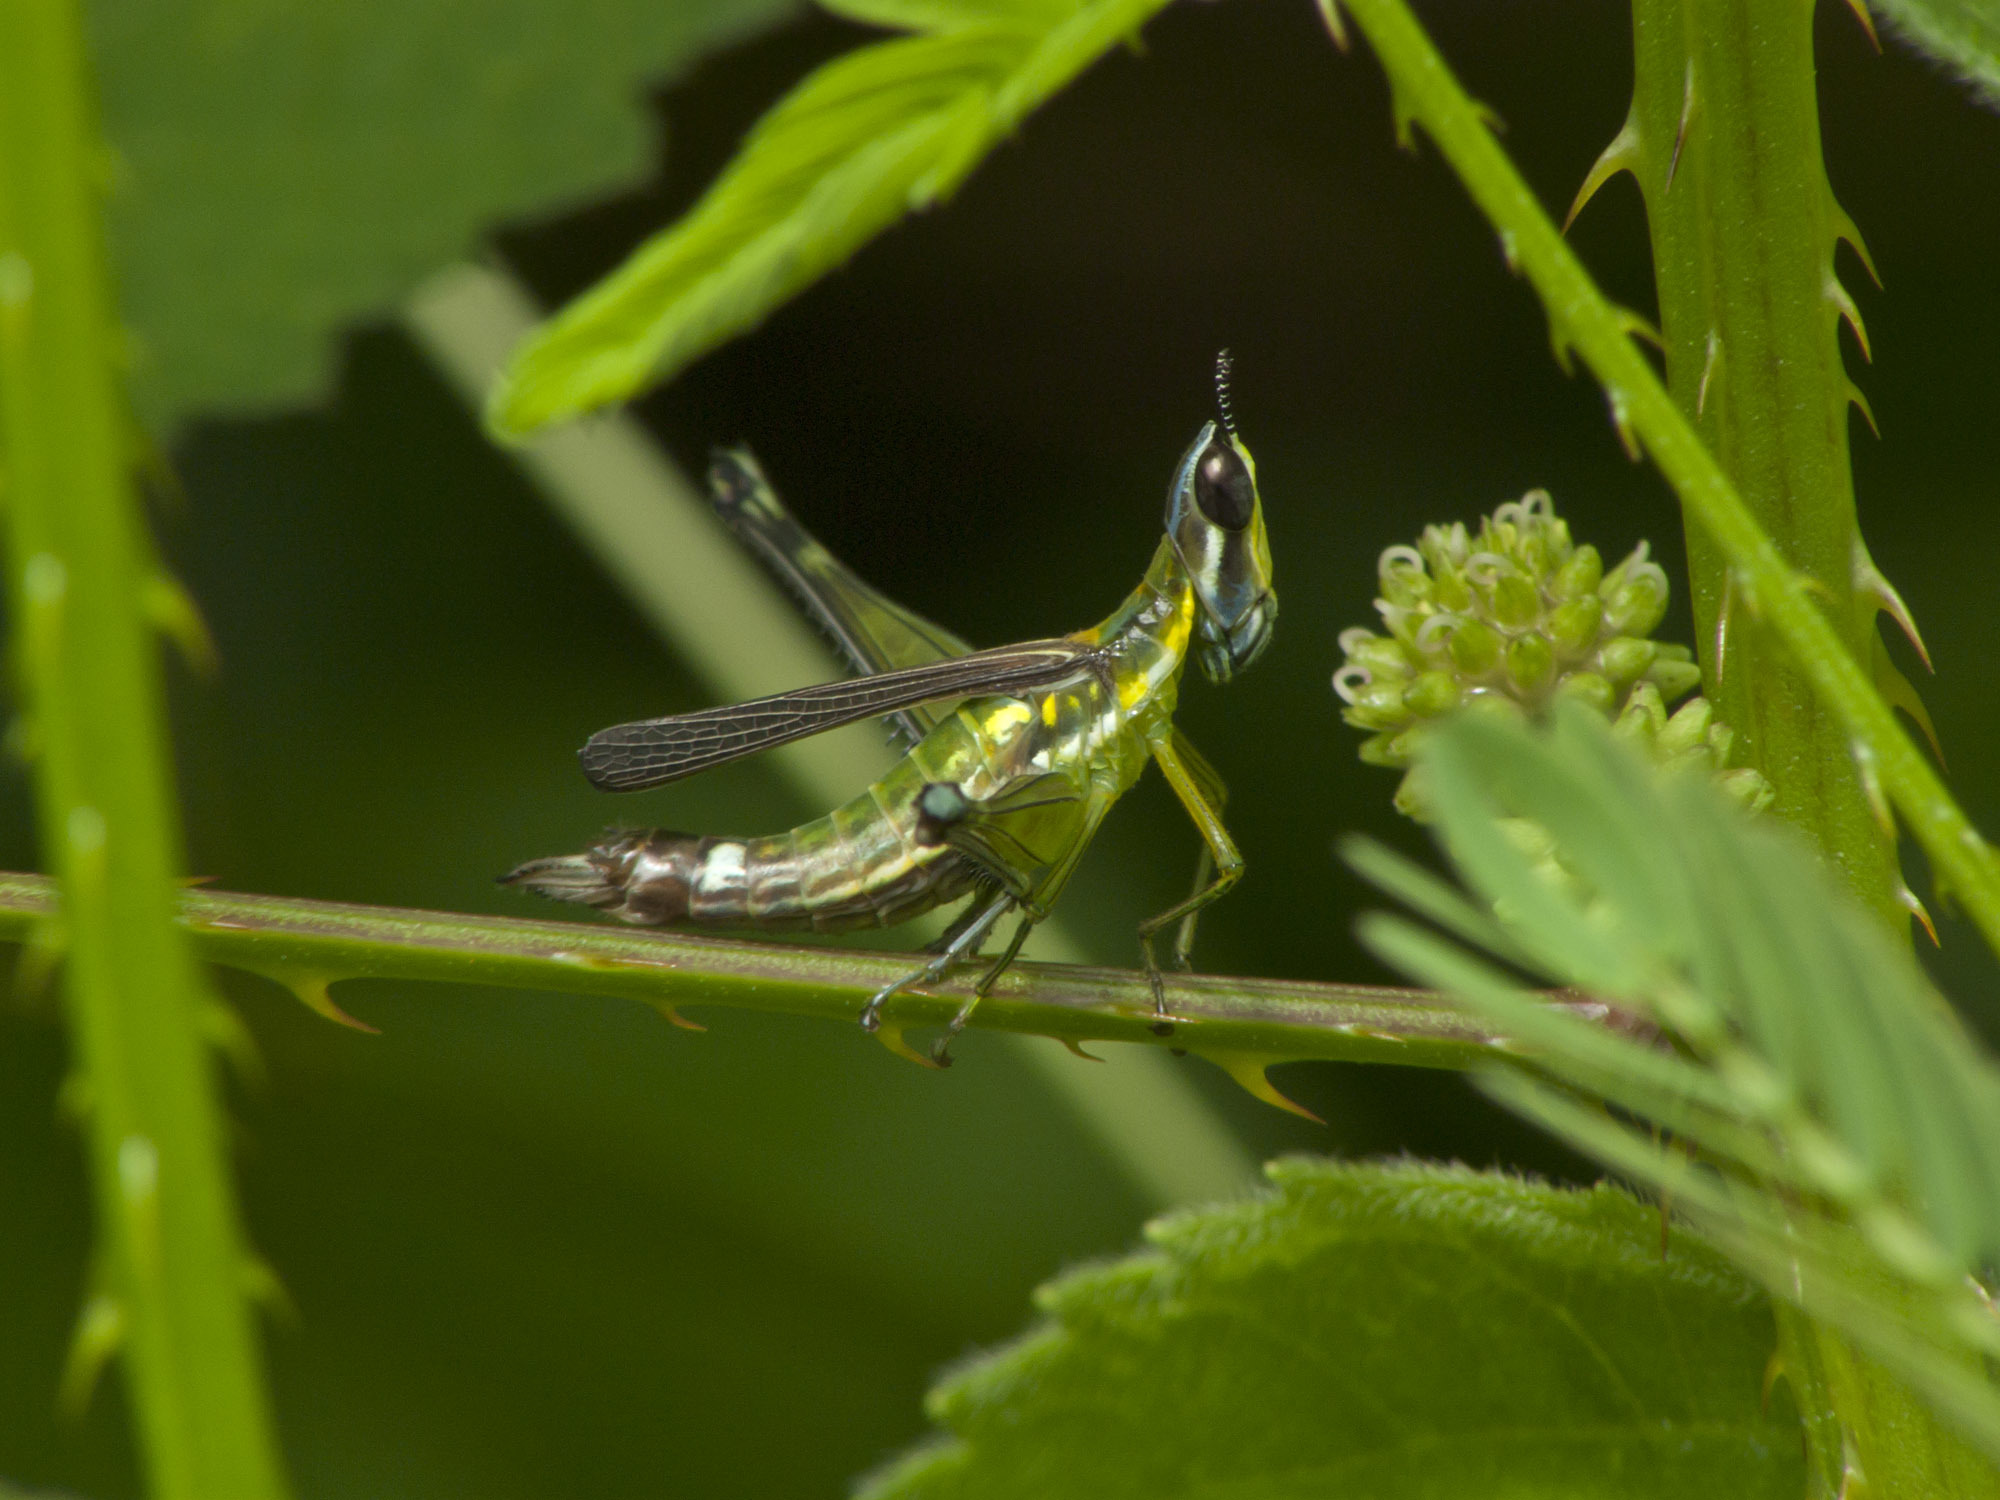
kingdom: Animalia
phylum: Arthropoda
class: Insecta
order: Orthoptera
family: Eumastacidae
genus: Malenamastax
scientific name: Malenamastax tobiensis
